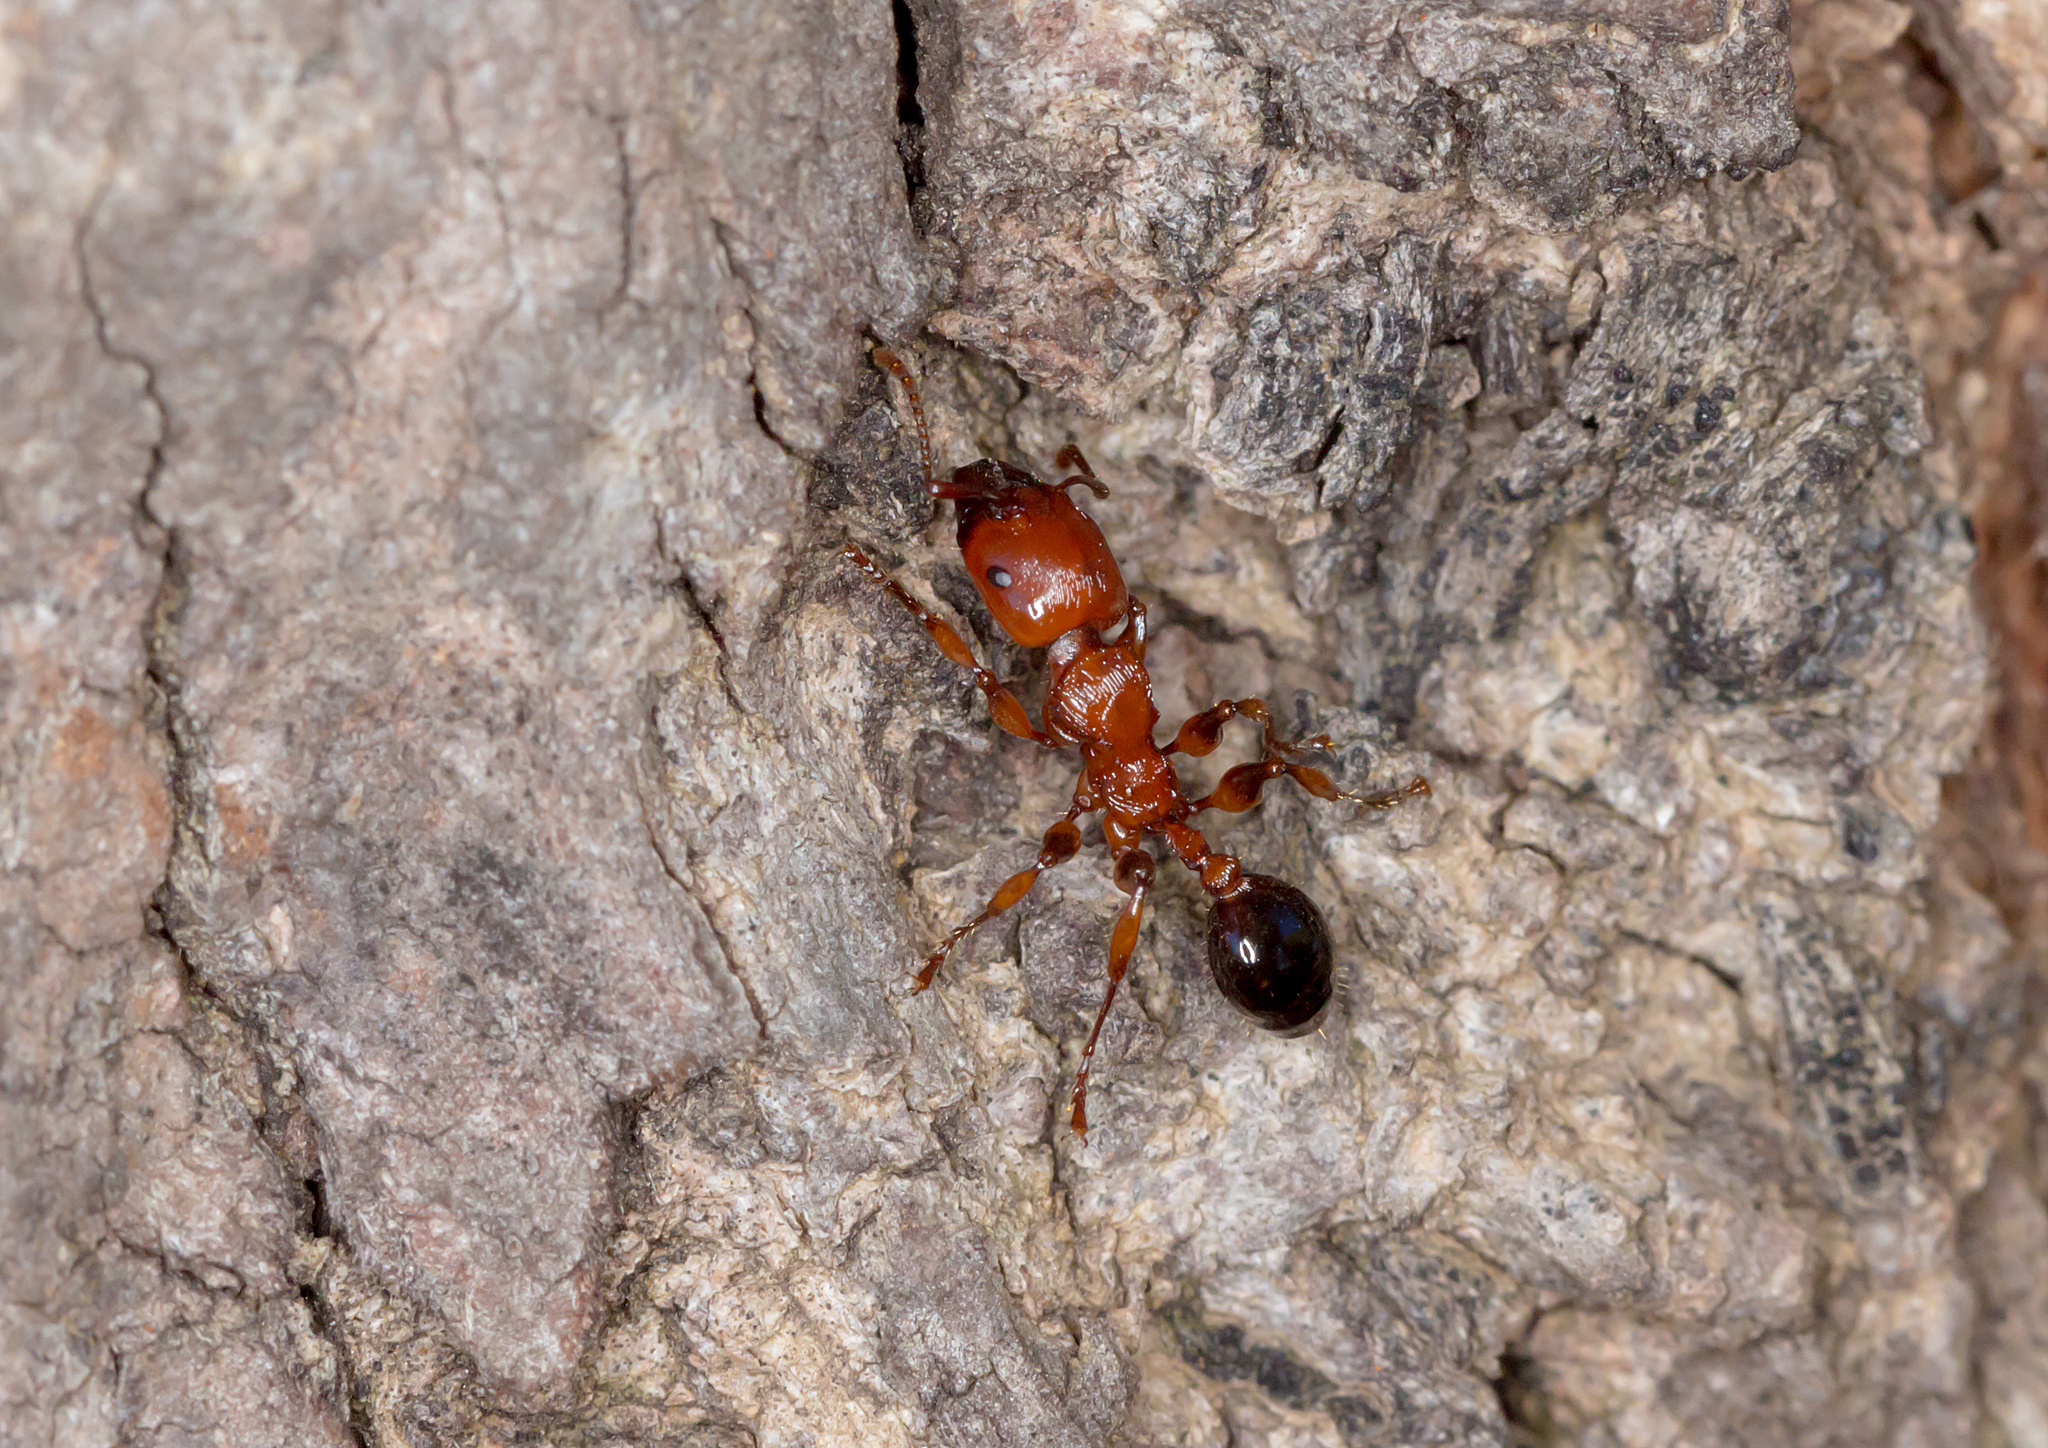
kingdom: Animalia
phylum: Arthropoda
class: Insecta
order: Hymenoptera
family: Formicidae
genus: Podomyrma
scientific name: Podomyrma gratiosa
